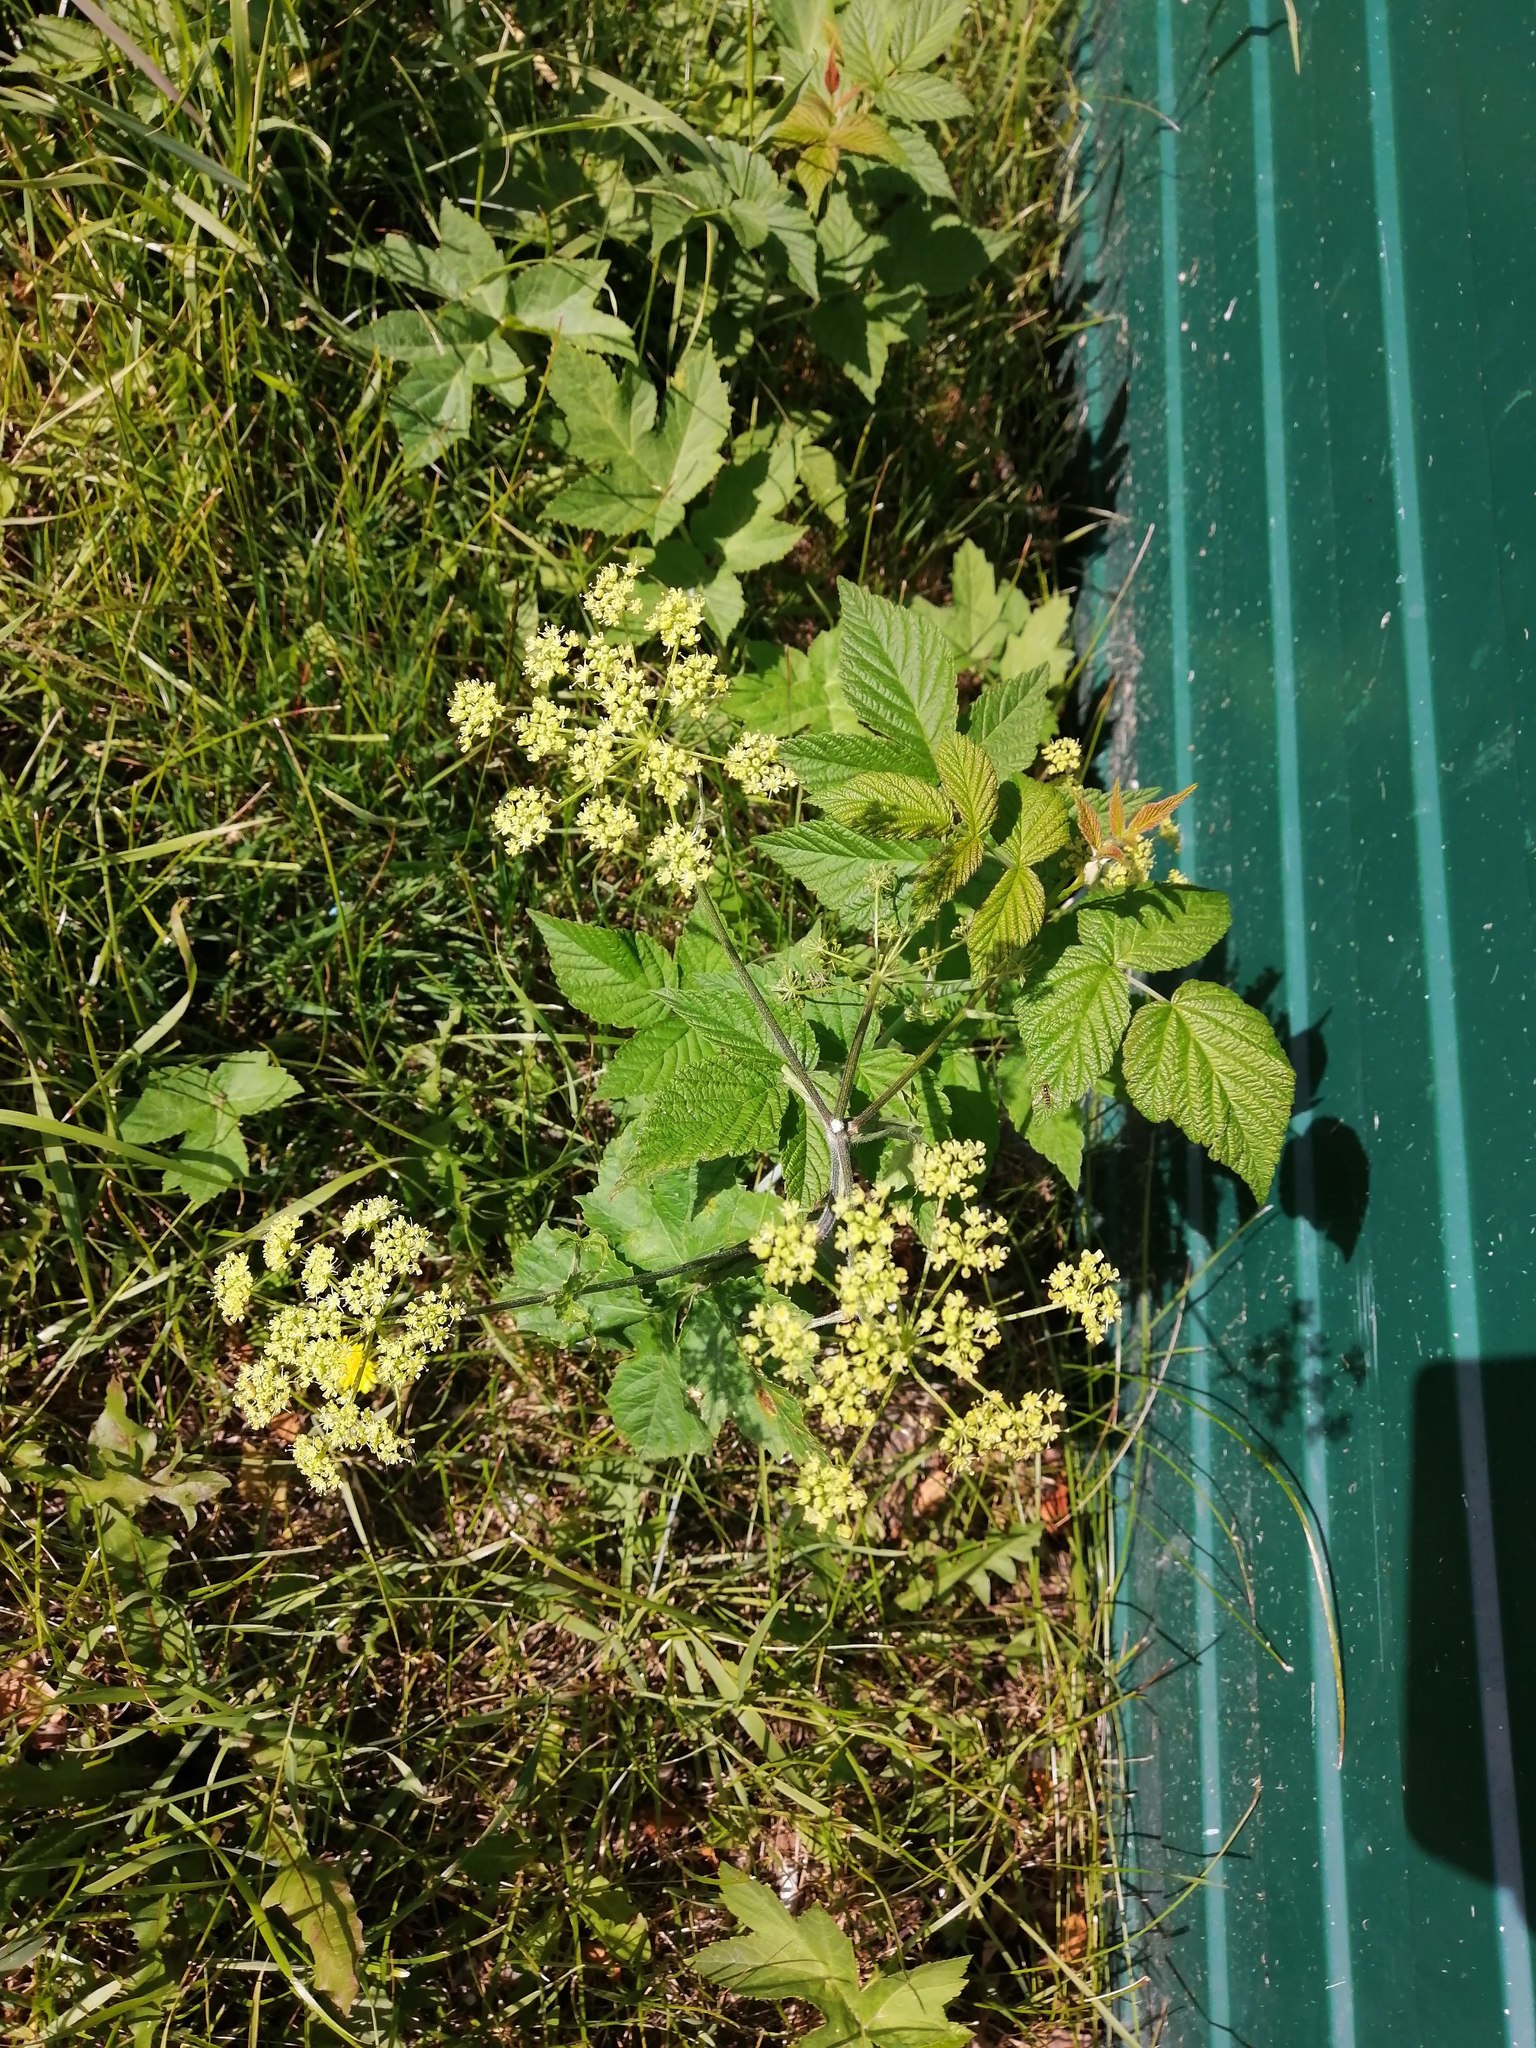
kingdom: Plantae
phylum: Tracheophyta
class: Magnoliopsida
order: Apiales
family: Apiaceae
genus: Heracleum
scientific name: Heracleum sphondylium
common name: Hogweed
